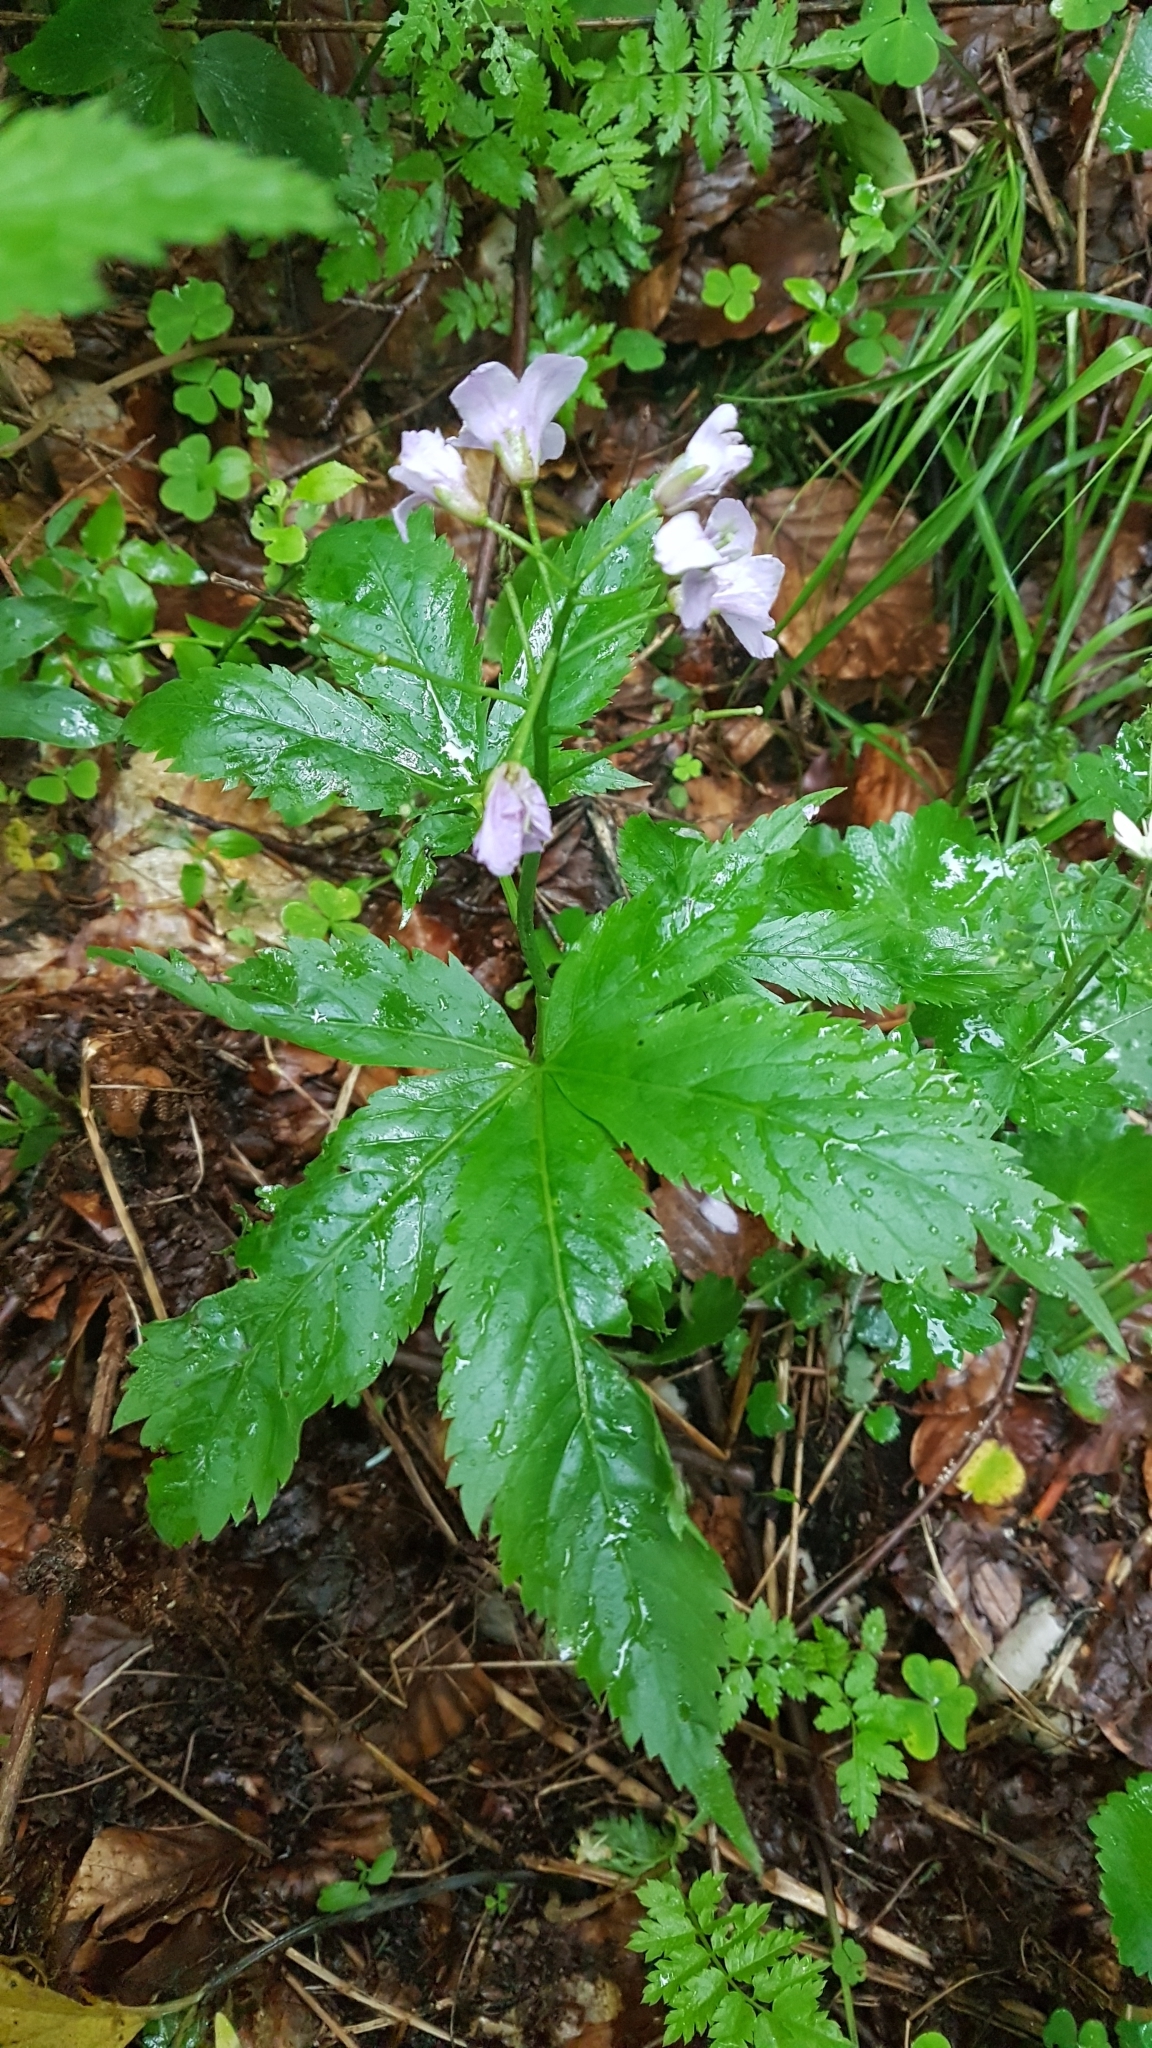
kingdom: Plantae
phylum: Tracheophyta
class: Magnoliopsida
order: Brassicales
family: Brassicaceae
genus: Cardamine
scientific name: Cardamine pentaphyllos
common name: Five-leaflet bitter-cress
